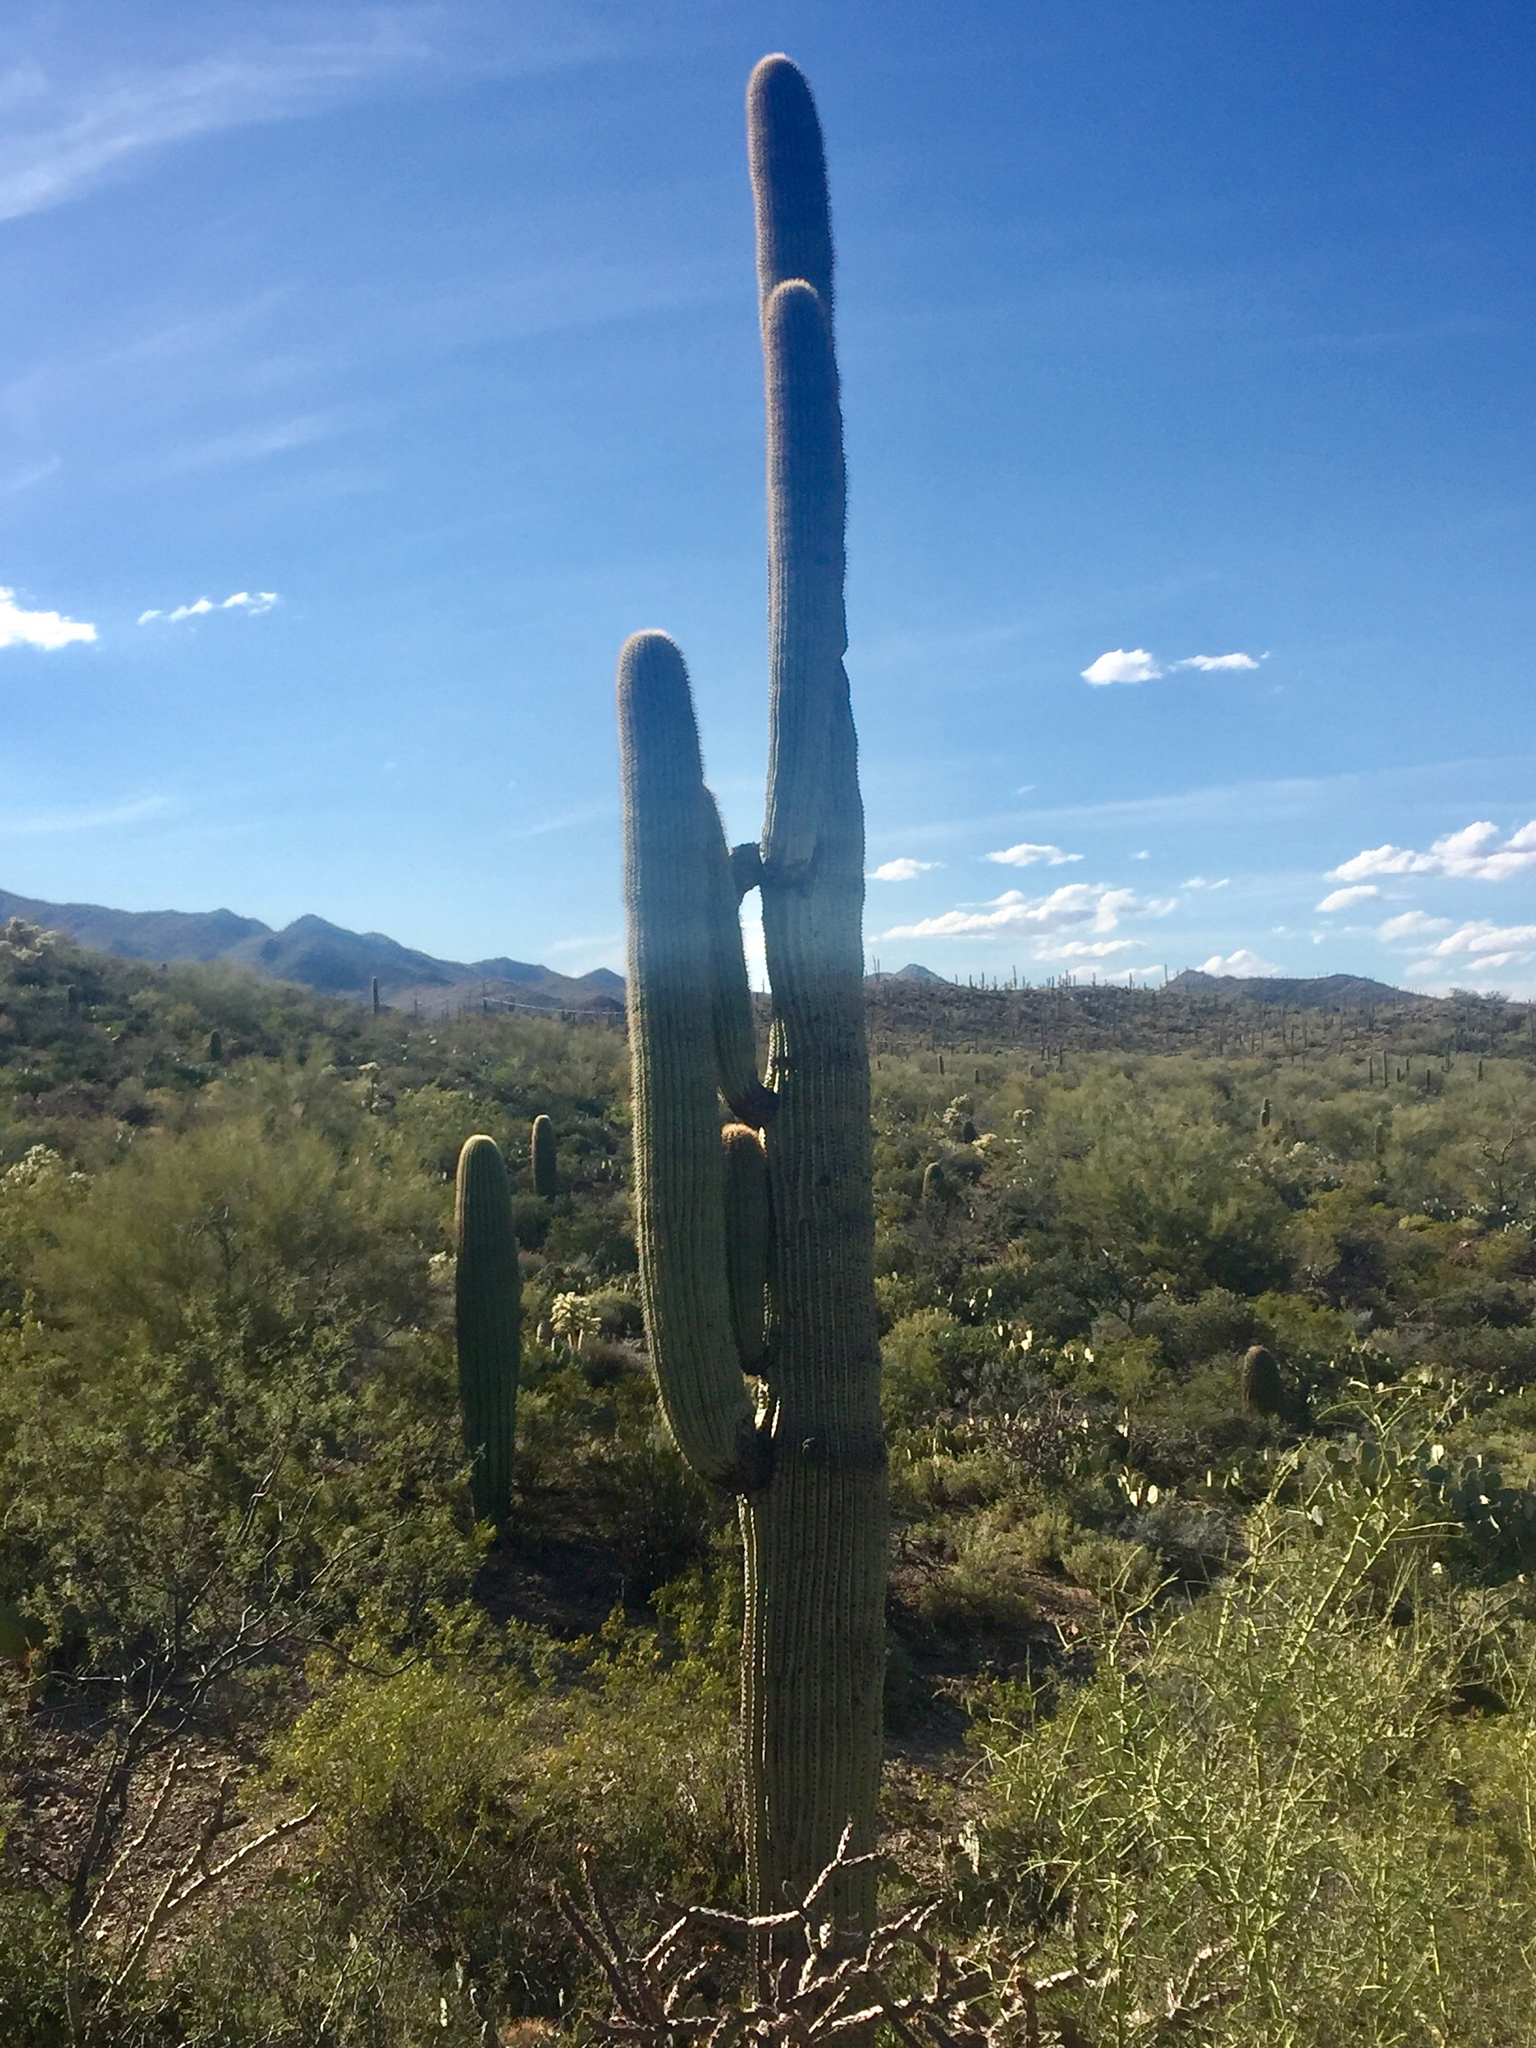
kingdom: Plantae
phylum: Tracheophyta
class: Magnoliopsida
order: Caryophyllales
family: Cactaceae
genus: Carnegiea
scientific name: Carnegiea gigantea
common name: Saguaro
